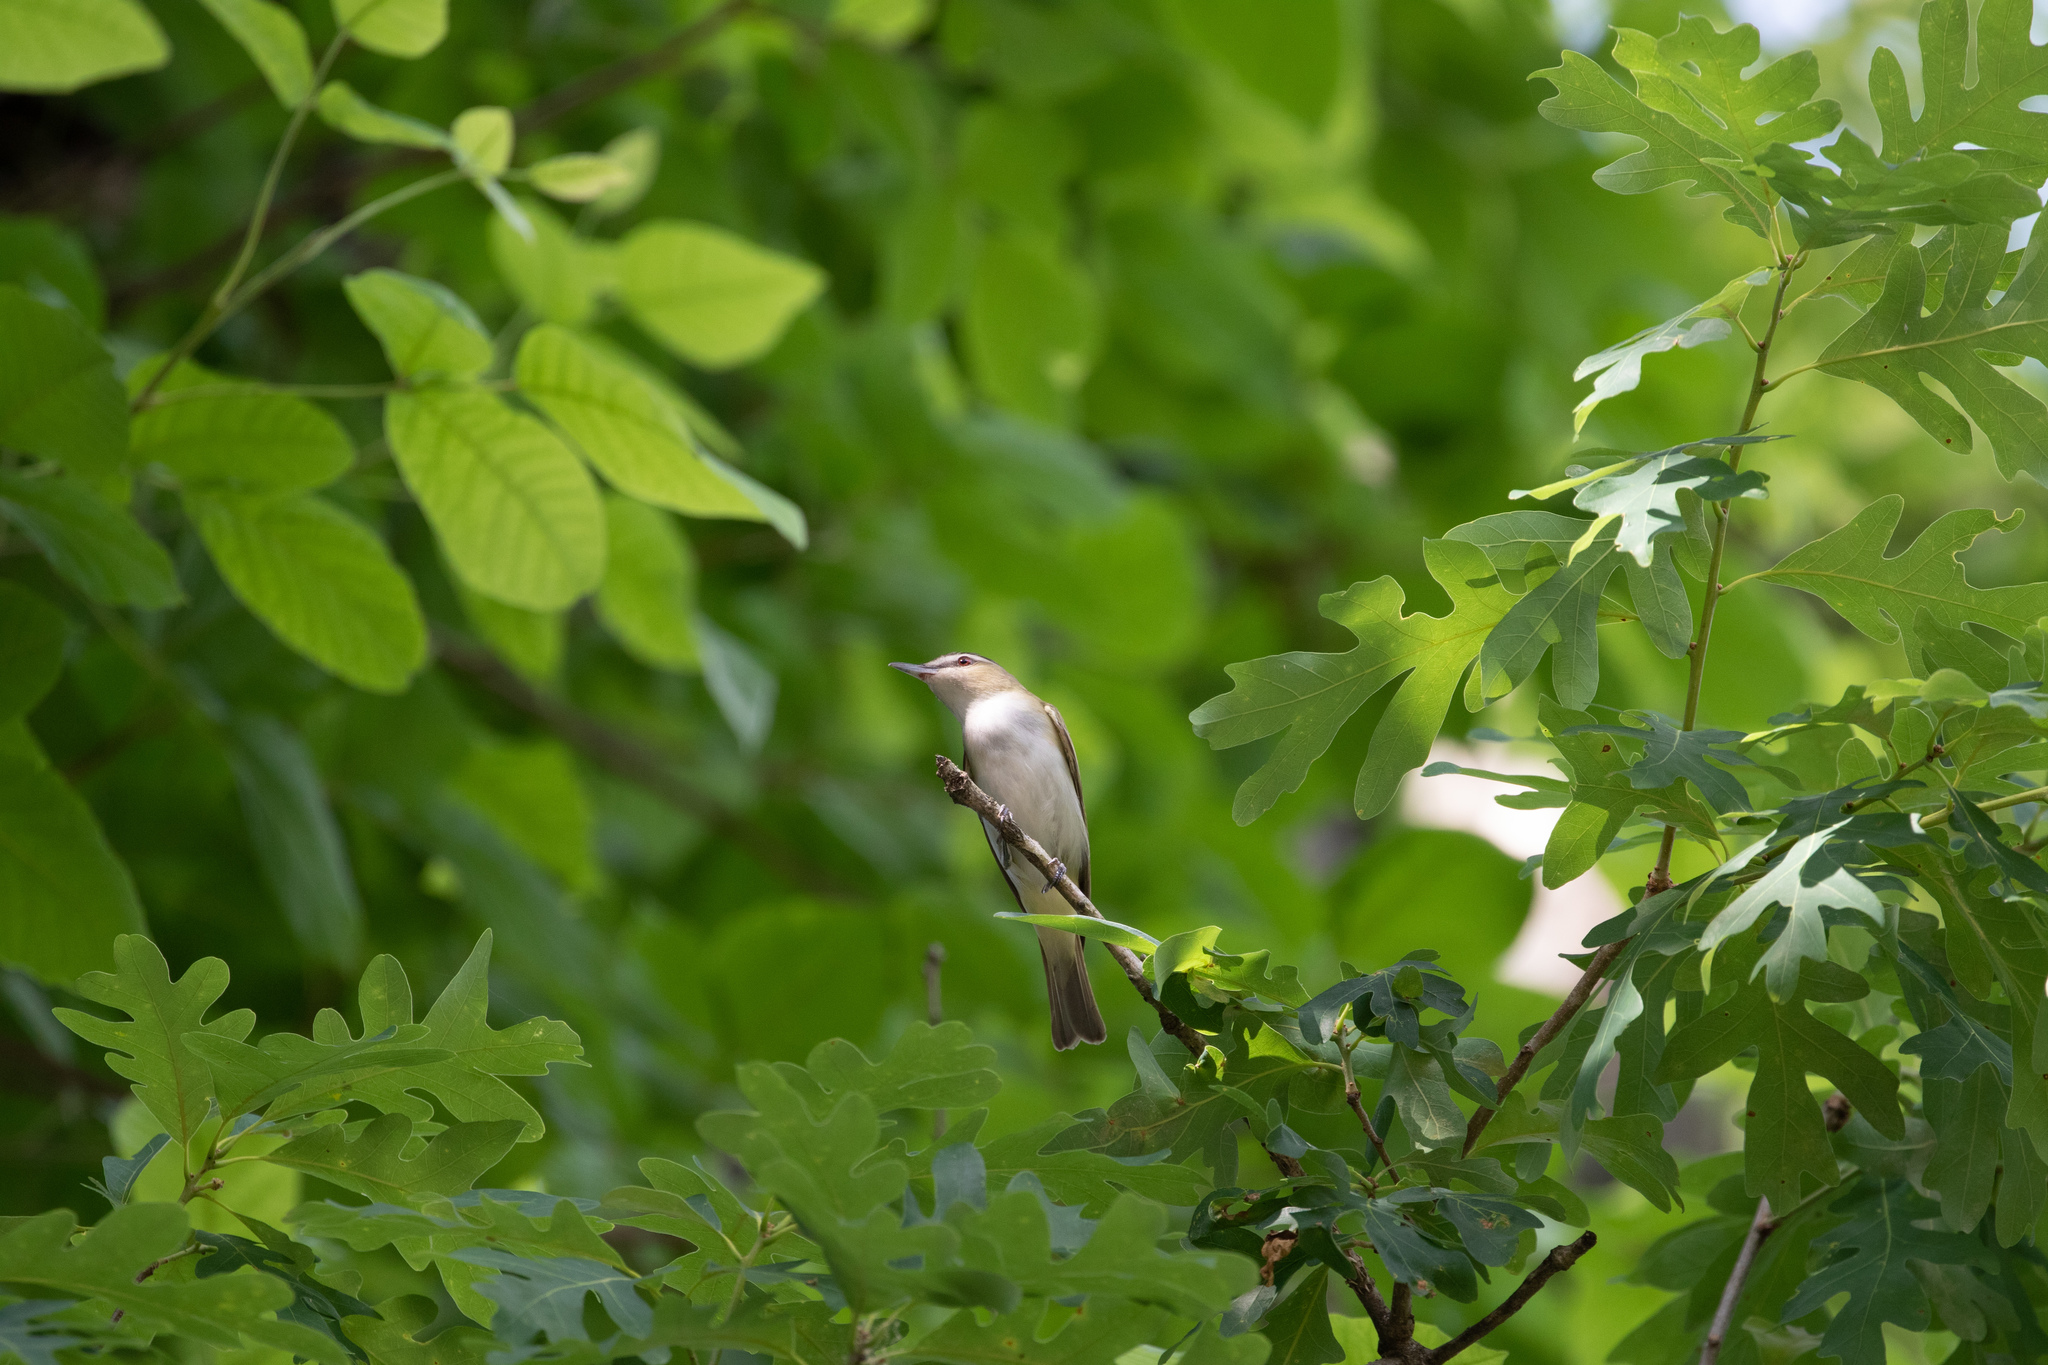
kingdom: Animalia
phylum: Chordata
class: Aves
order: Passeriformes
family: Vireonidae
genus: Vireo
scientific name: Vireo olivaceus
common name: Red-eyed vireo
